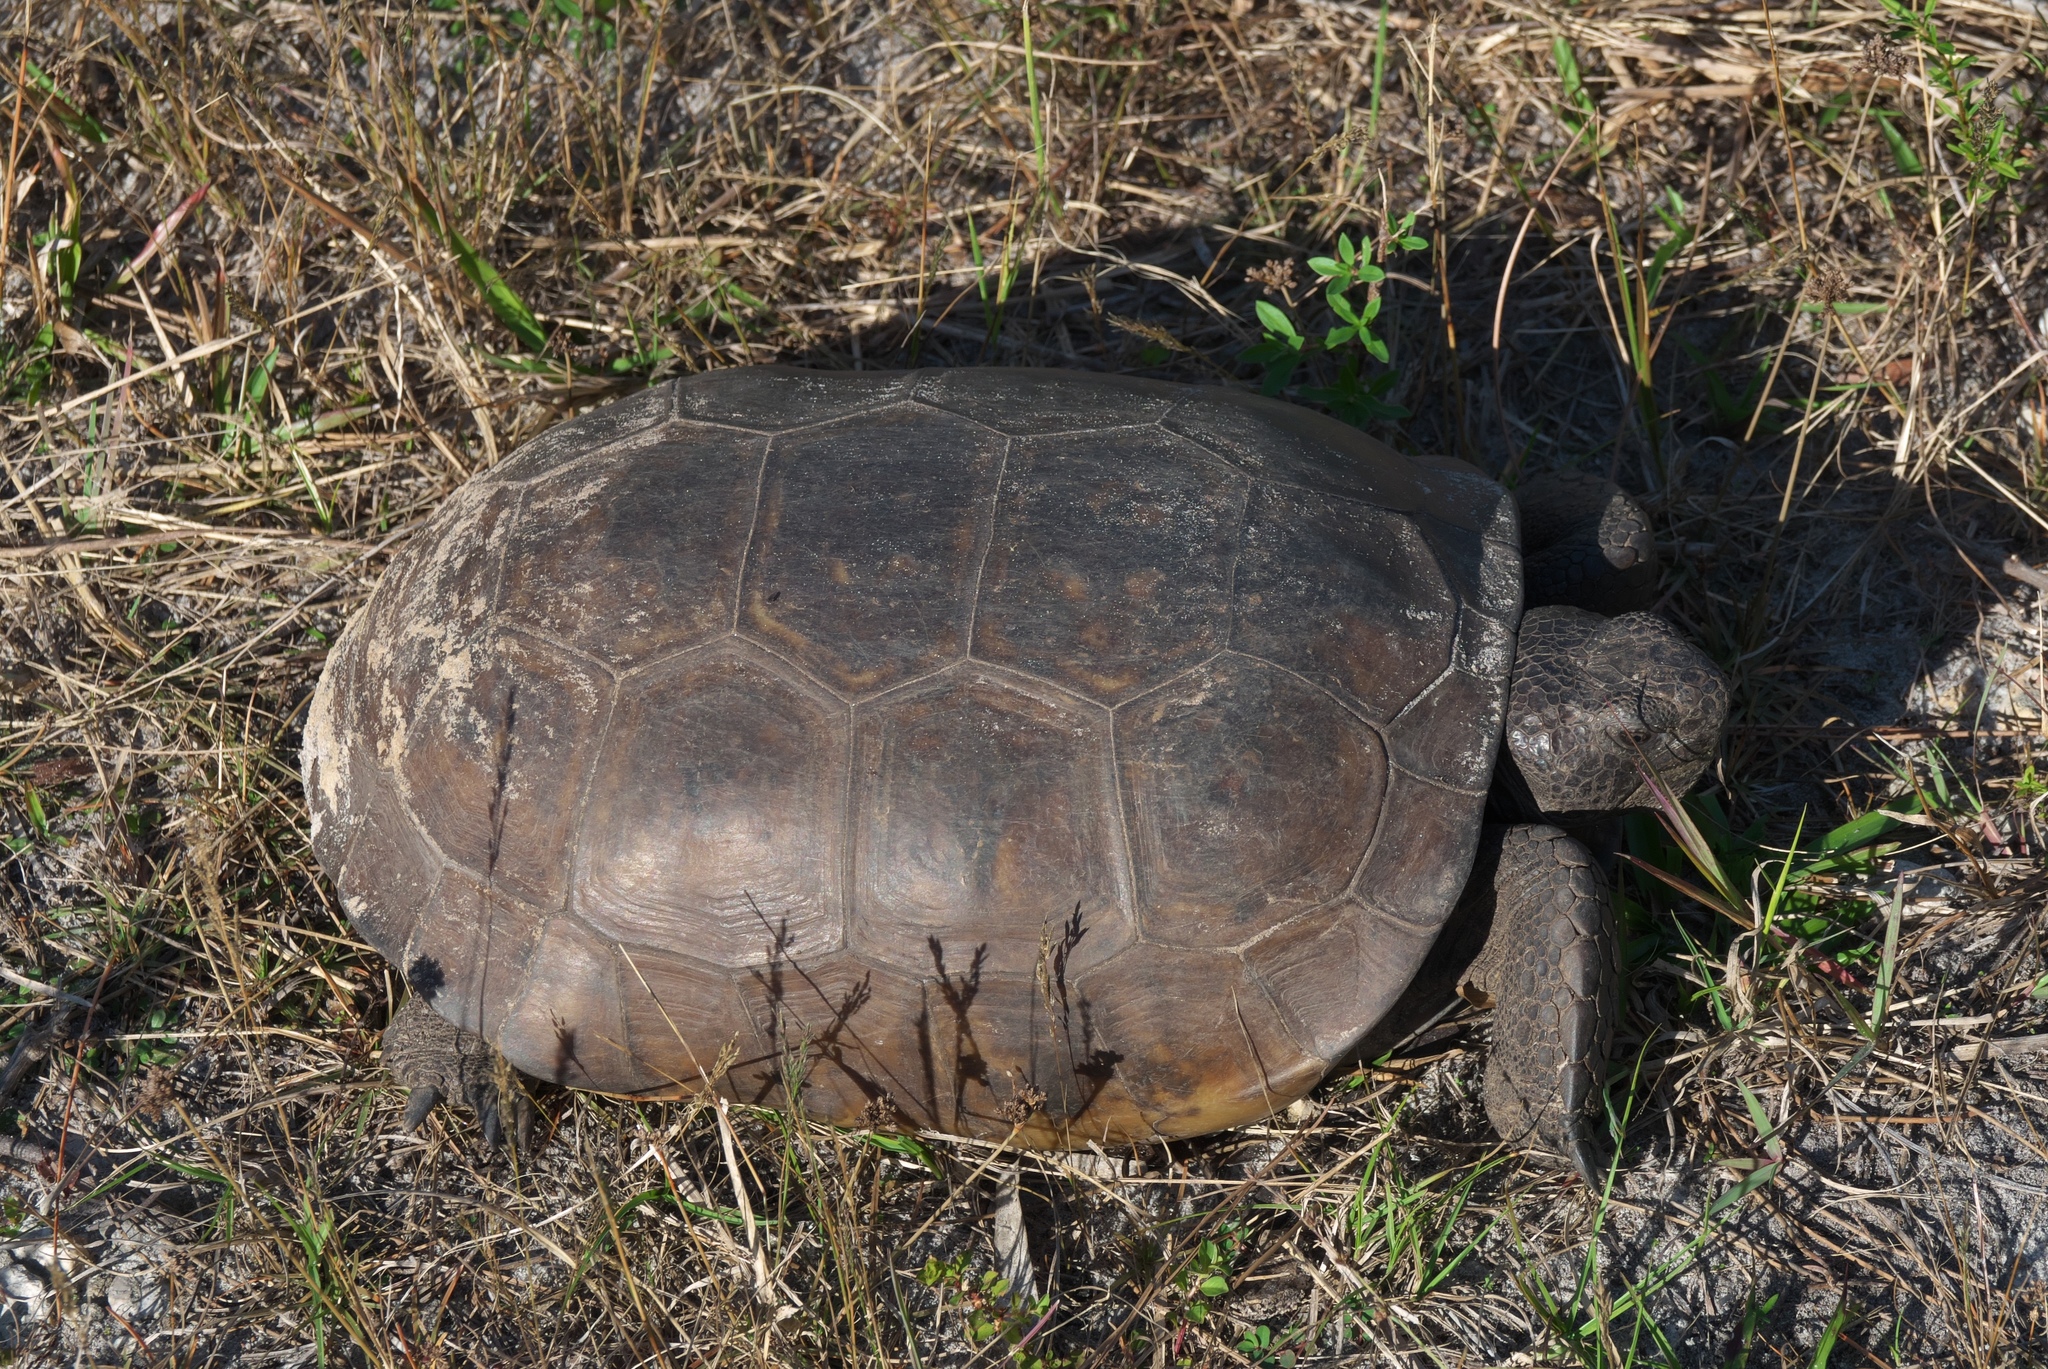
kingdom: Animalia
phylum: Chordata
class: Testudines
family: Testudinidae
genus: Gopherus
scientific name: Gopherus polyphemus
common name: Florida gopher tortoise
